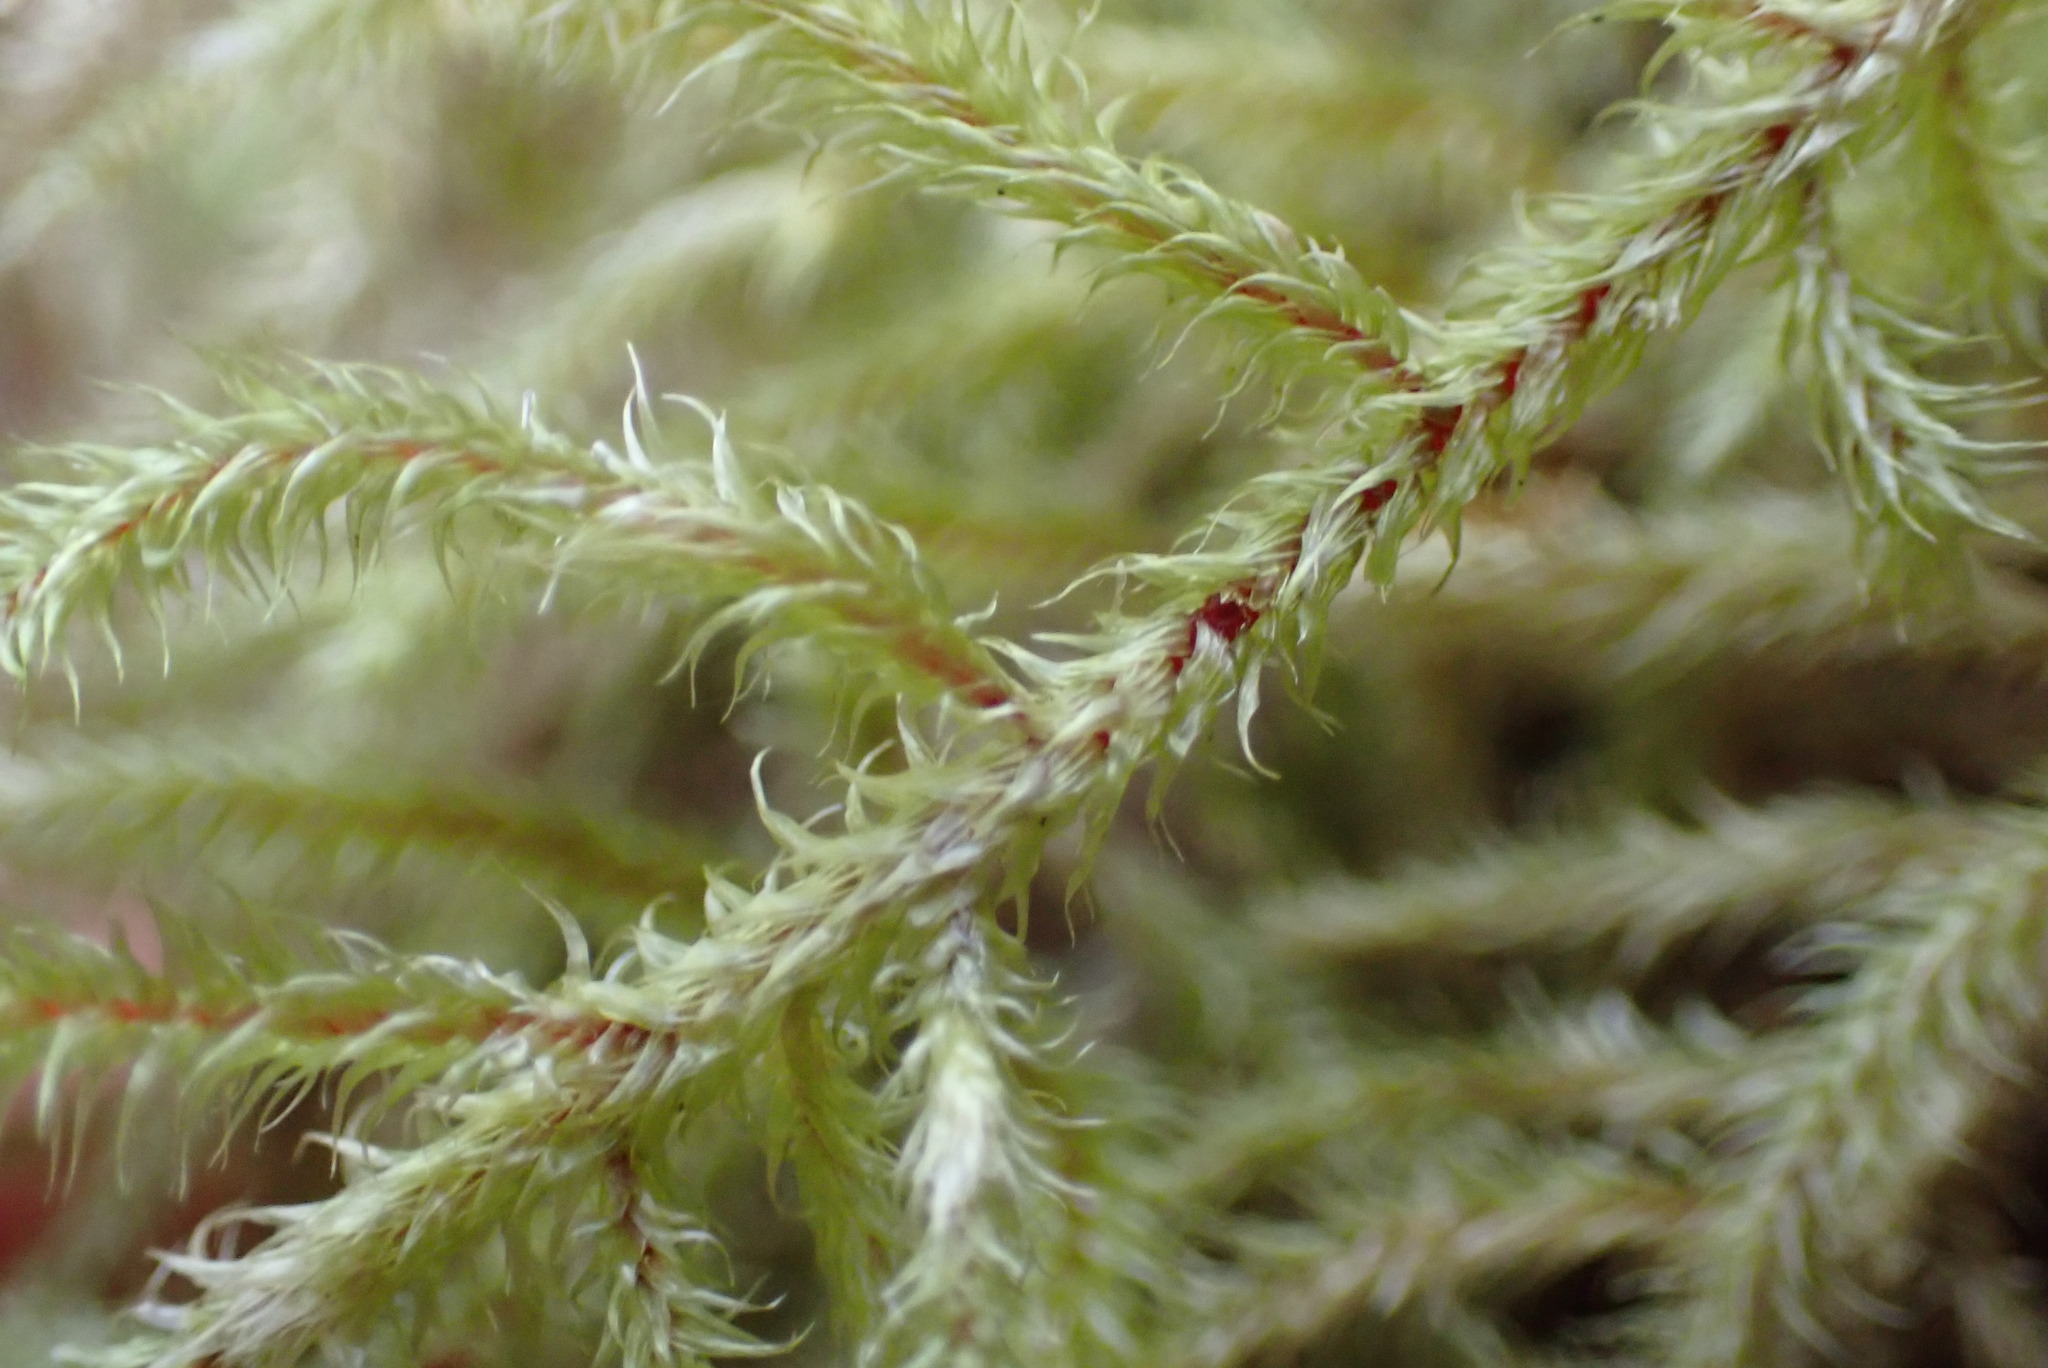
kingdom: Plantae
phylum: Bryophyta
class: Bryopsida
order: Hypnales
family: Hylocomiaceae
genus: Rhytidiadelphus
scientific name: Rhytidiadelphus loreus
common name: Lanky moss
